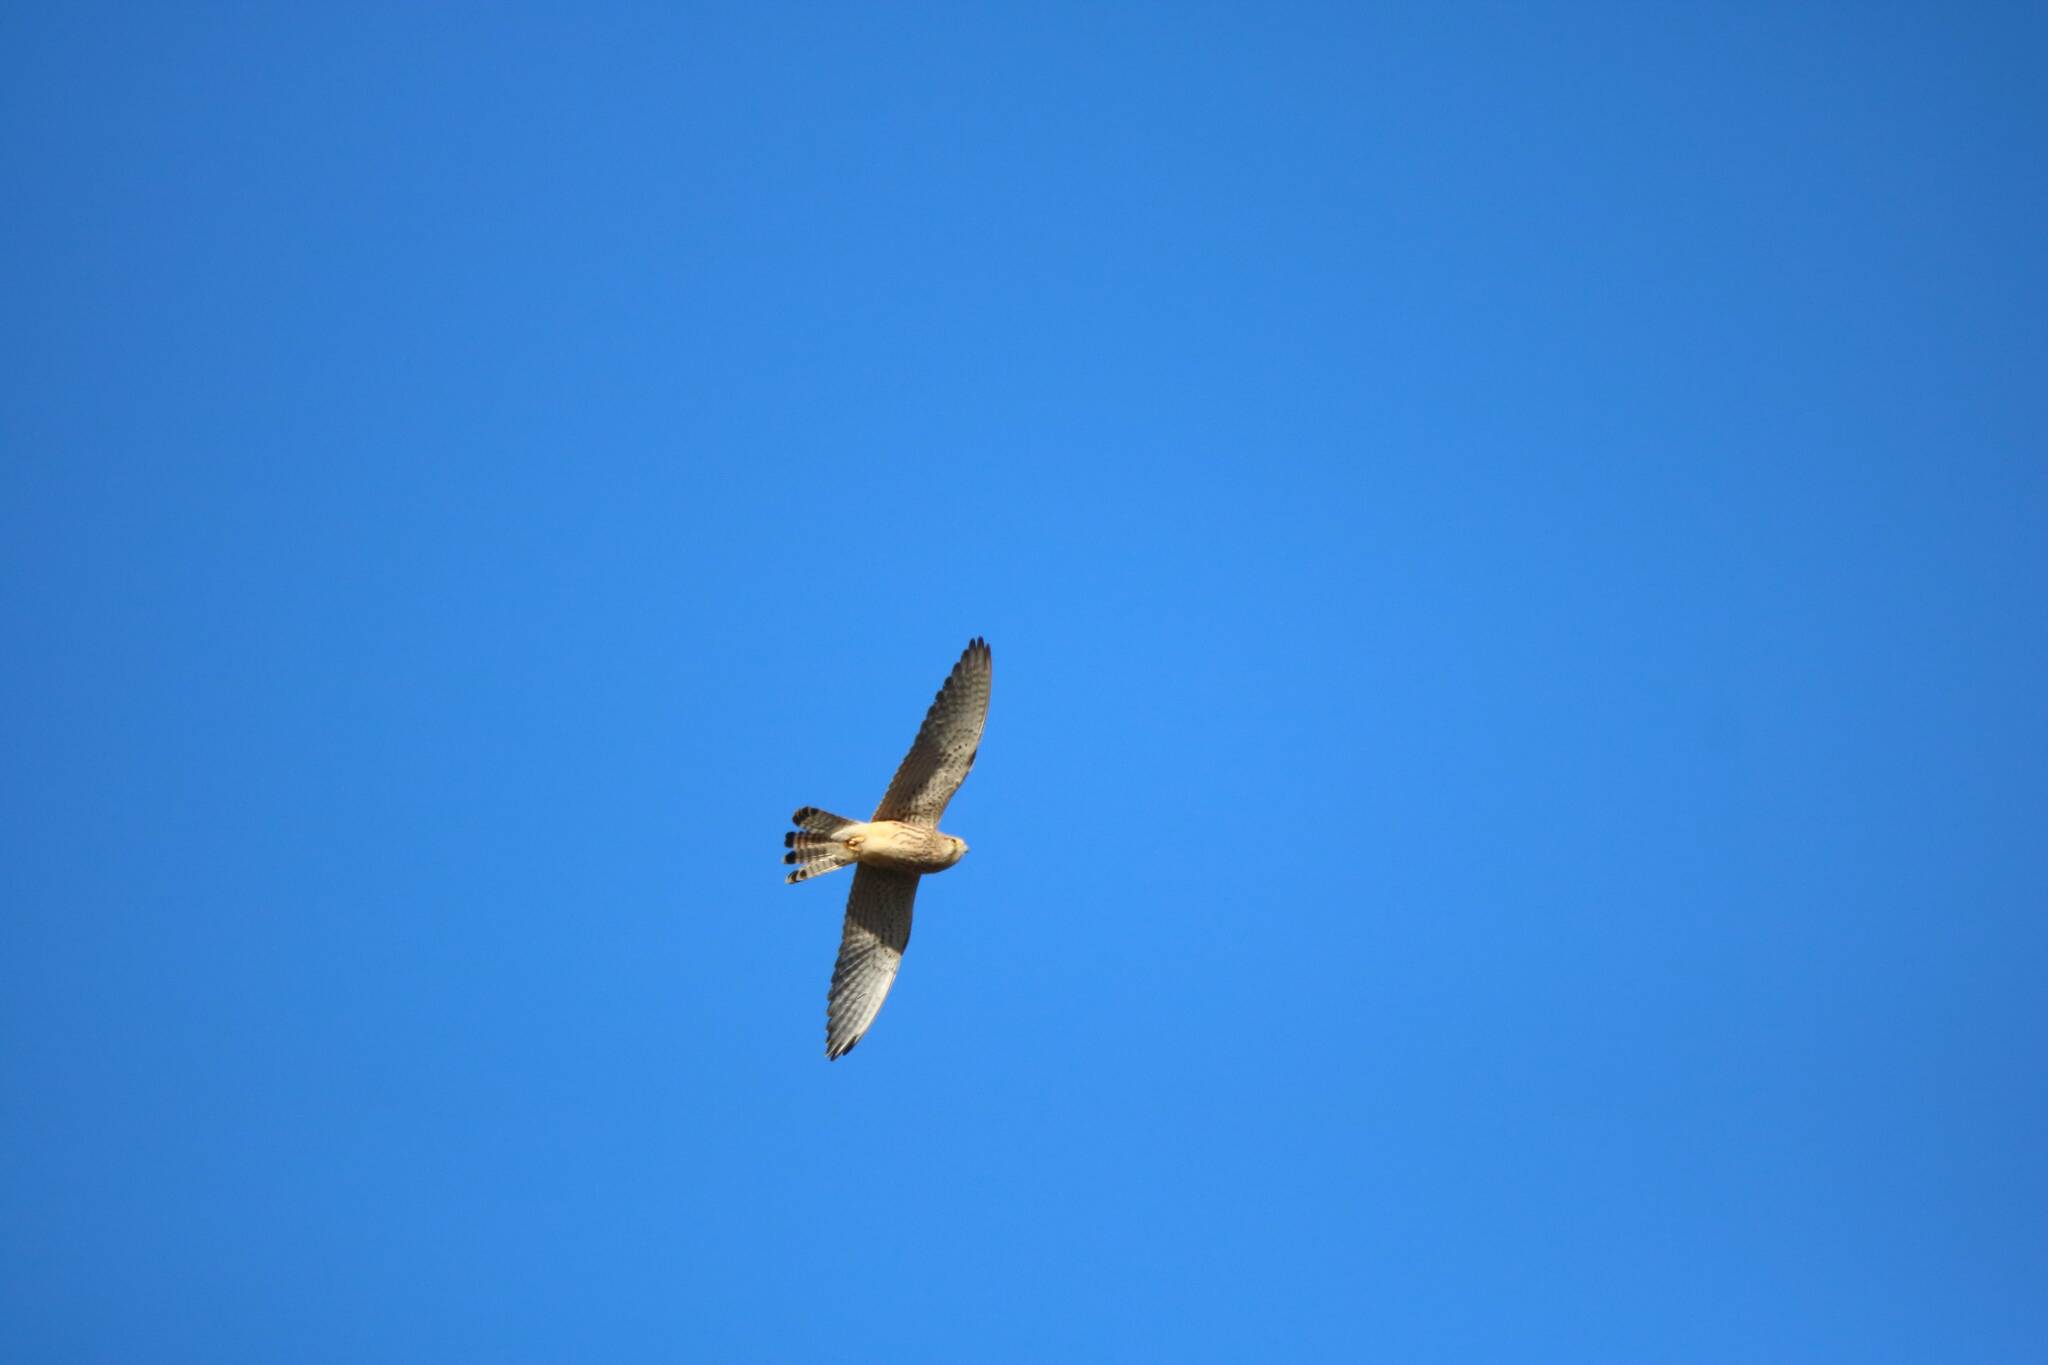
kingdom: Animalia
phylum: Chordata
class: Aves
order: Falconiformes
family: Falconidae
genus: Falco
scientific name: Falco tinnunculus
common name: Common kestrel
